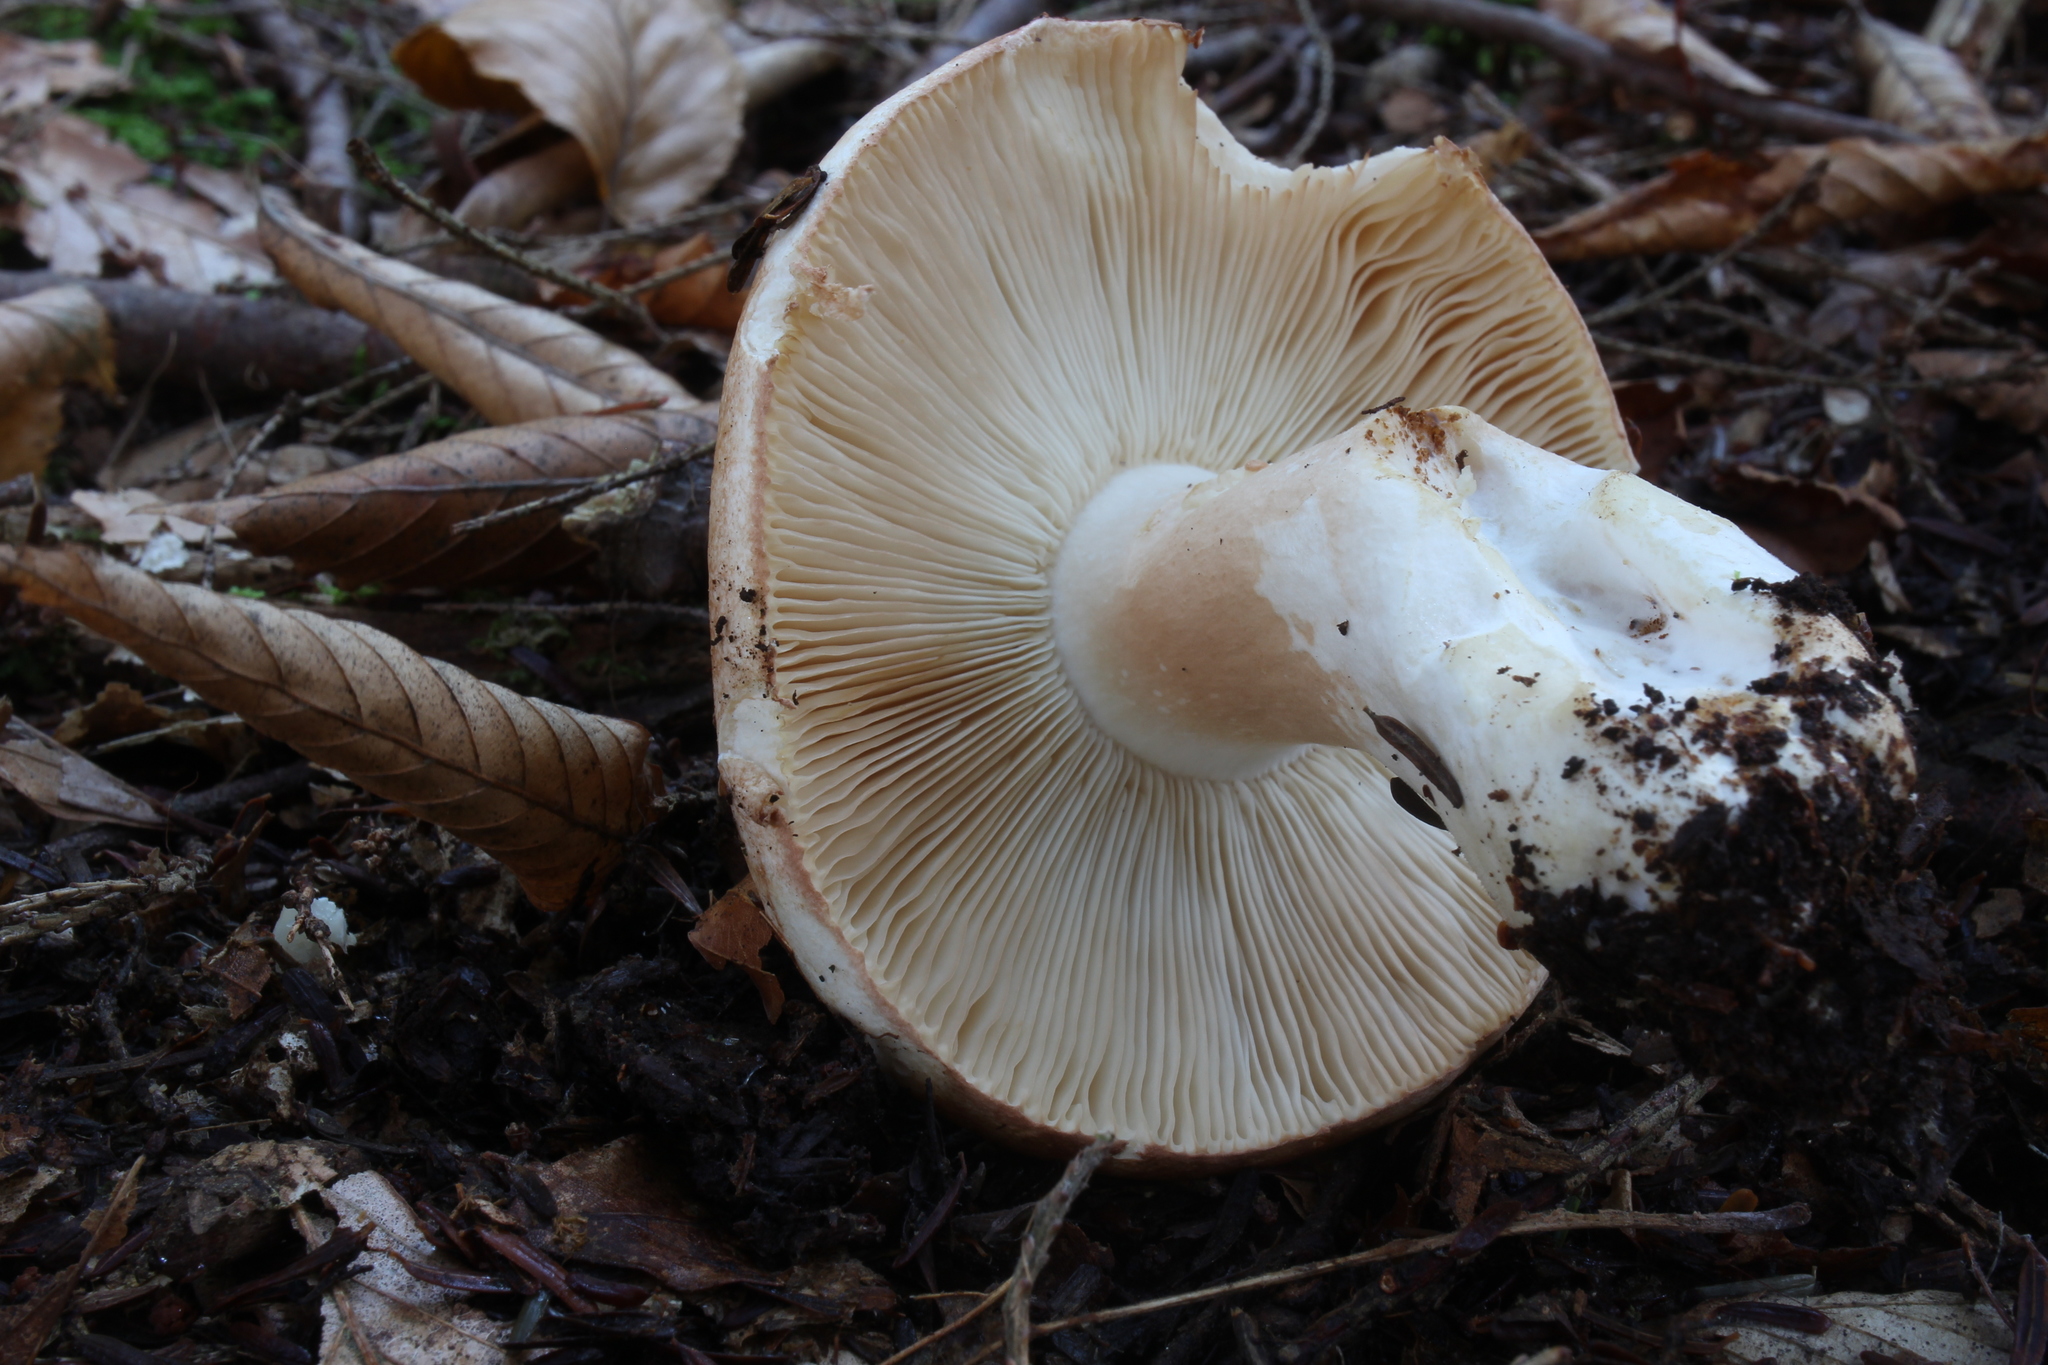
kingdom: Fungi
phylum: Basidiomycota
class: Agaricomycetes
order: Russulales
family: Russulaceae
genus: Russula
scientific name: Russula compacta
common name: Fishbiscuit russula
